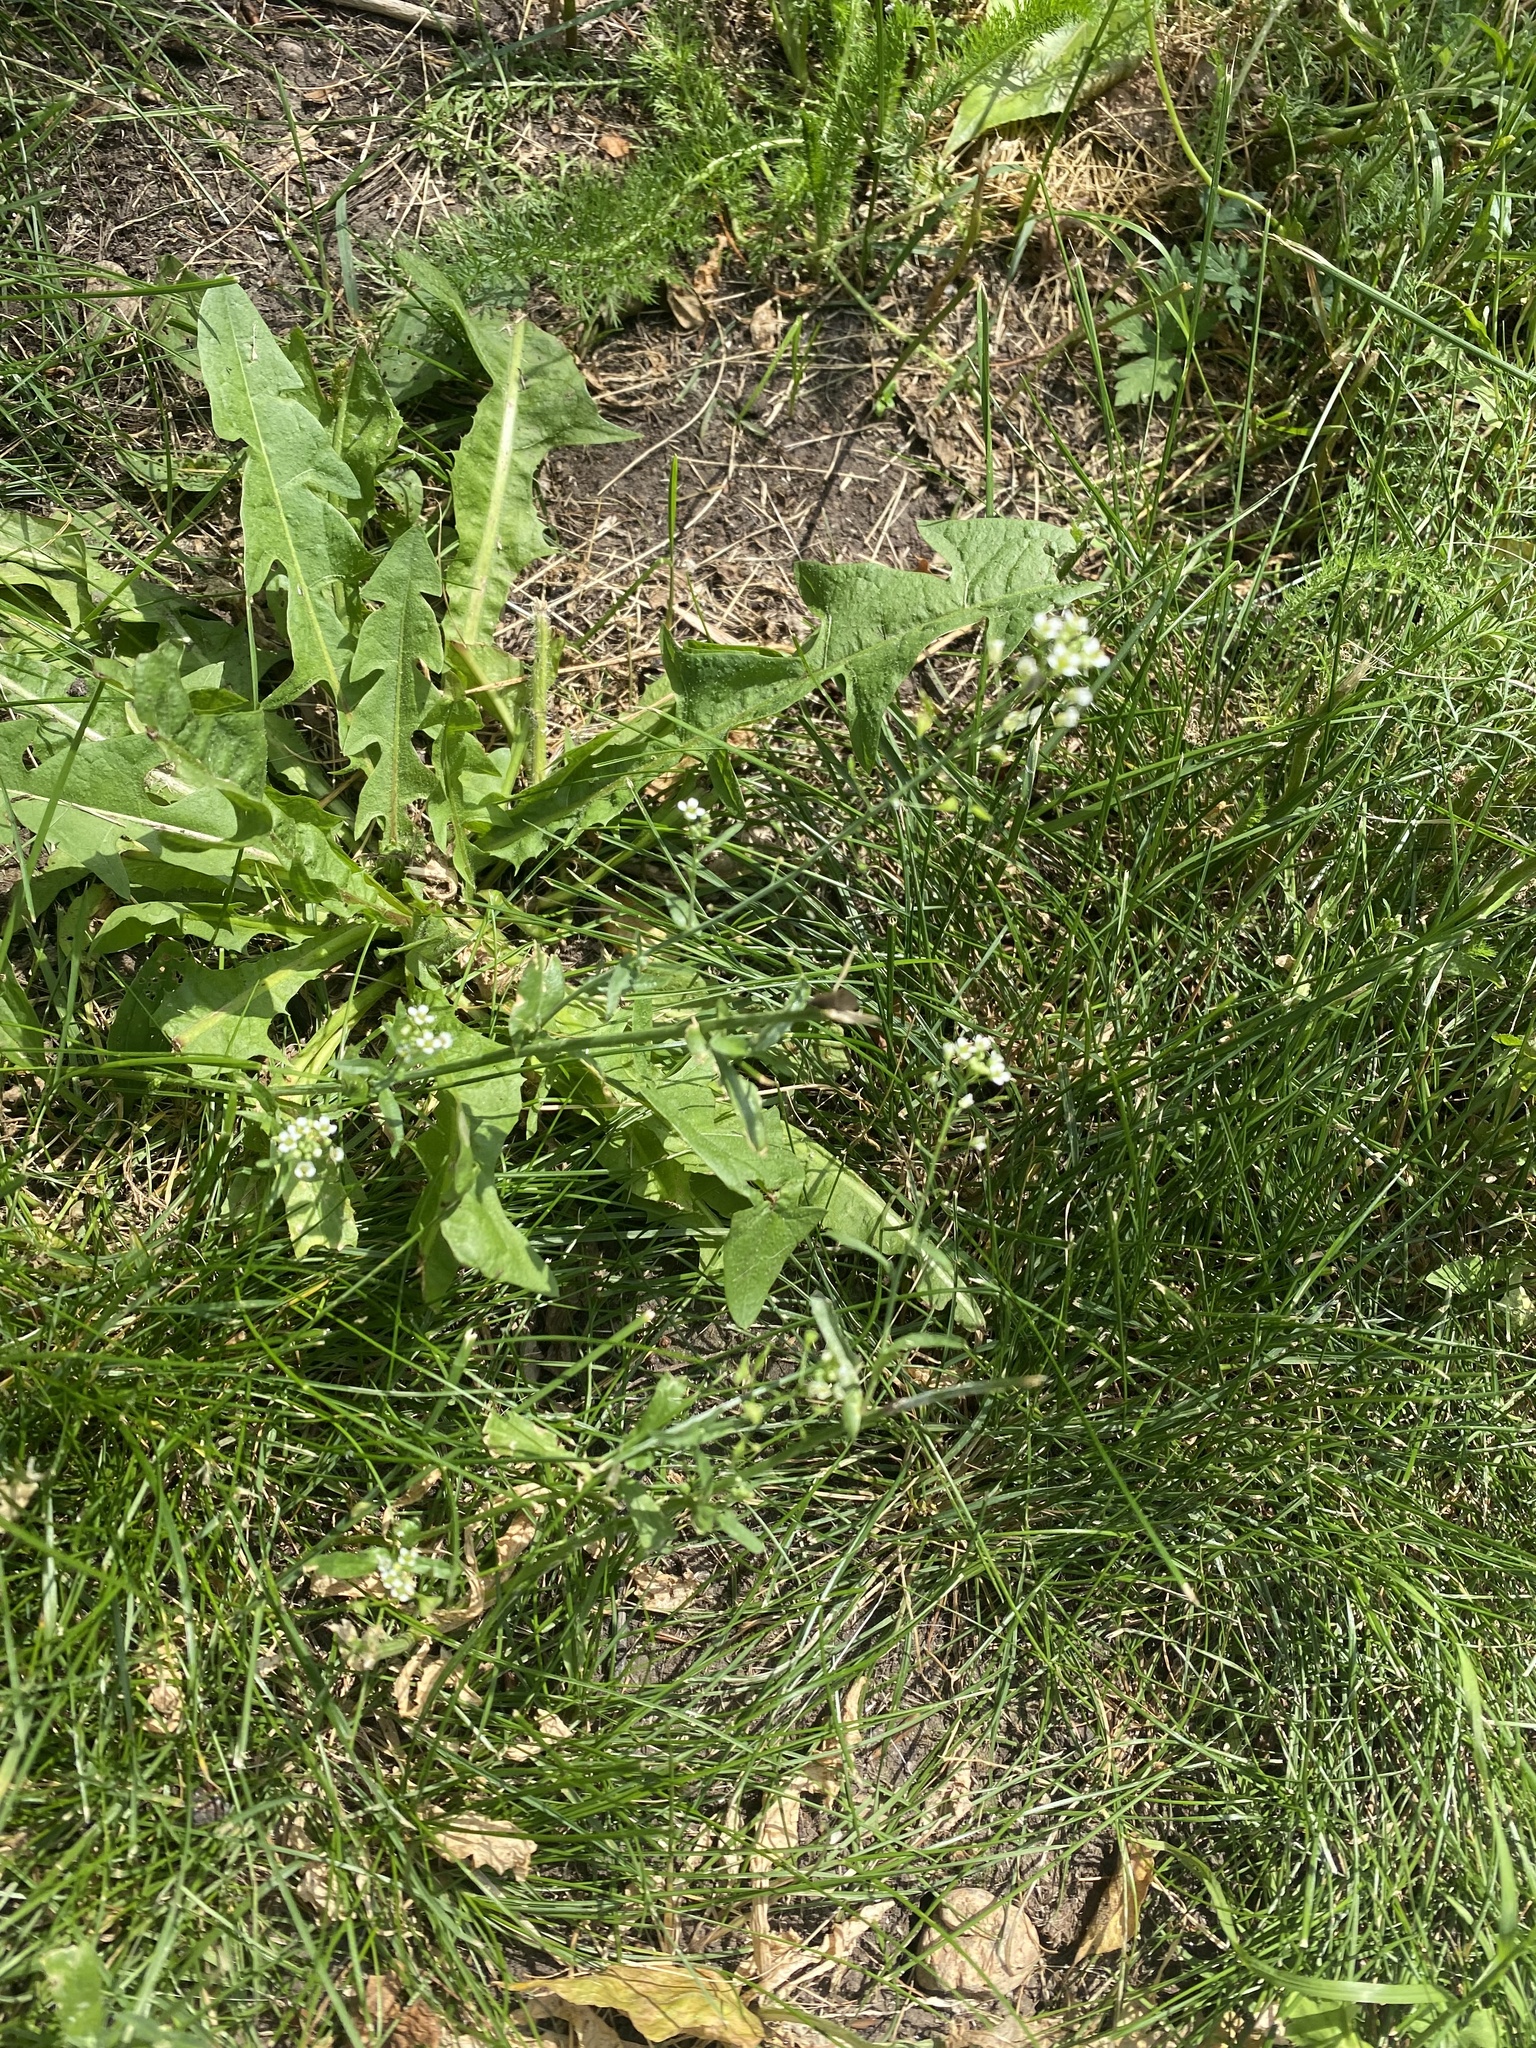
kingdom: Plantae
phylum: Tracheophyta
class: Magnoliopsida
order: Brassicales
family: Brassicaceae
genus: Capsella
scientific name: Capsella bursa-pastoris
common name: Shepherd's purse
